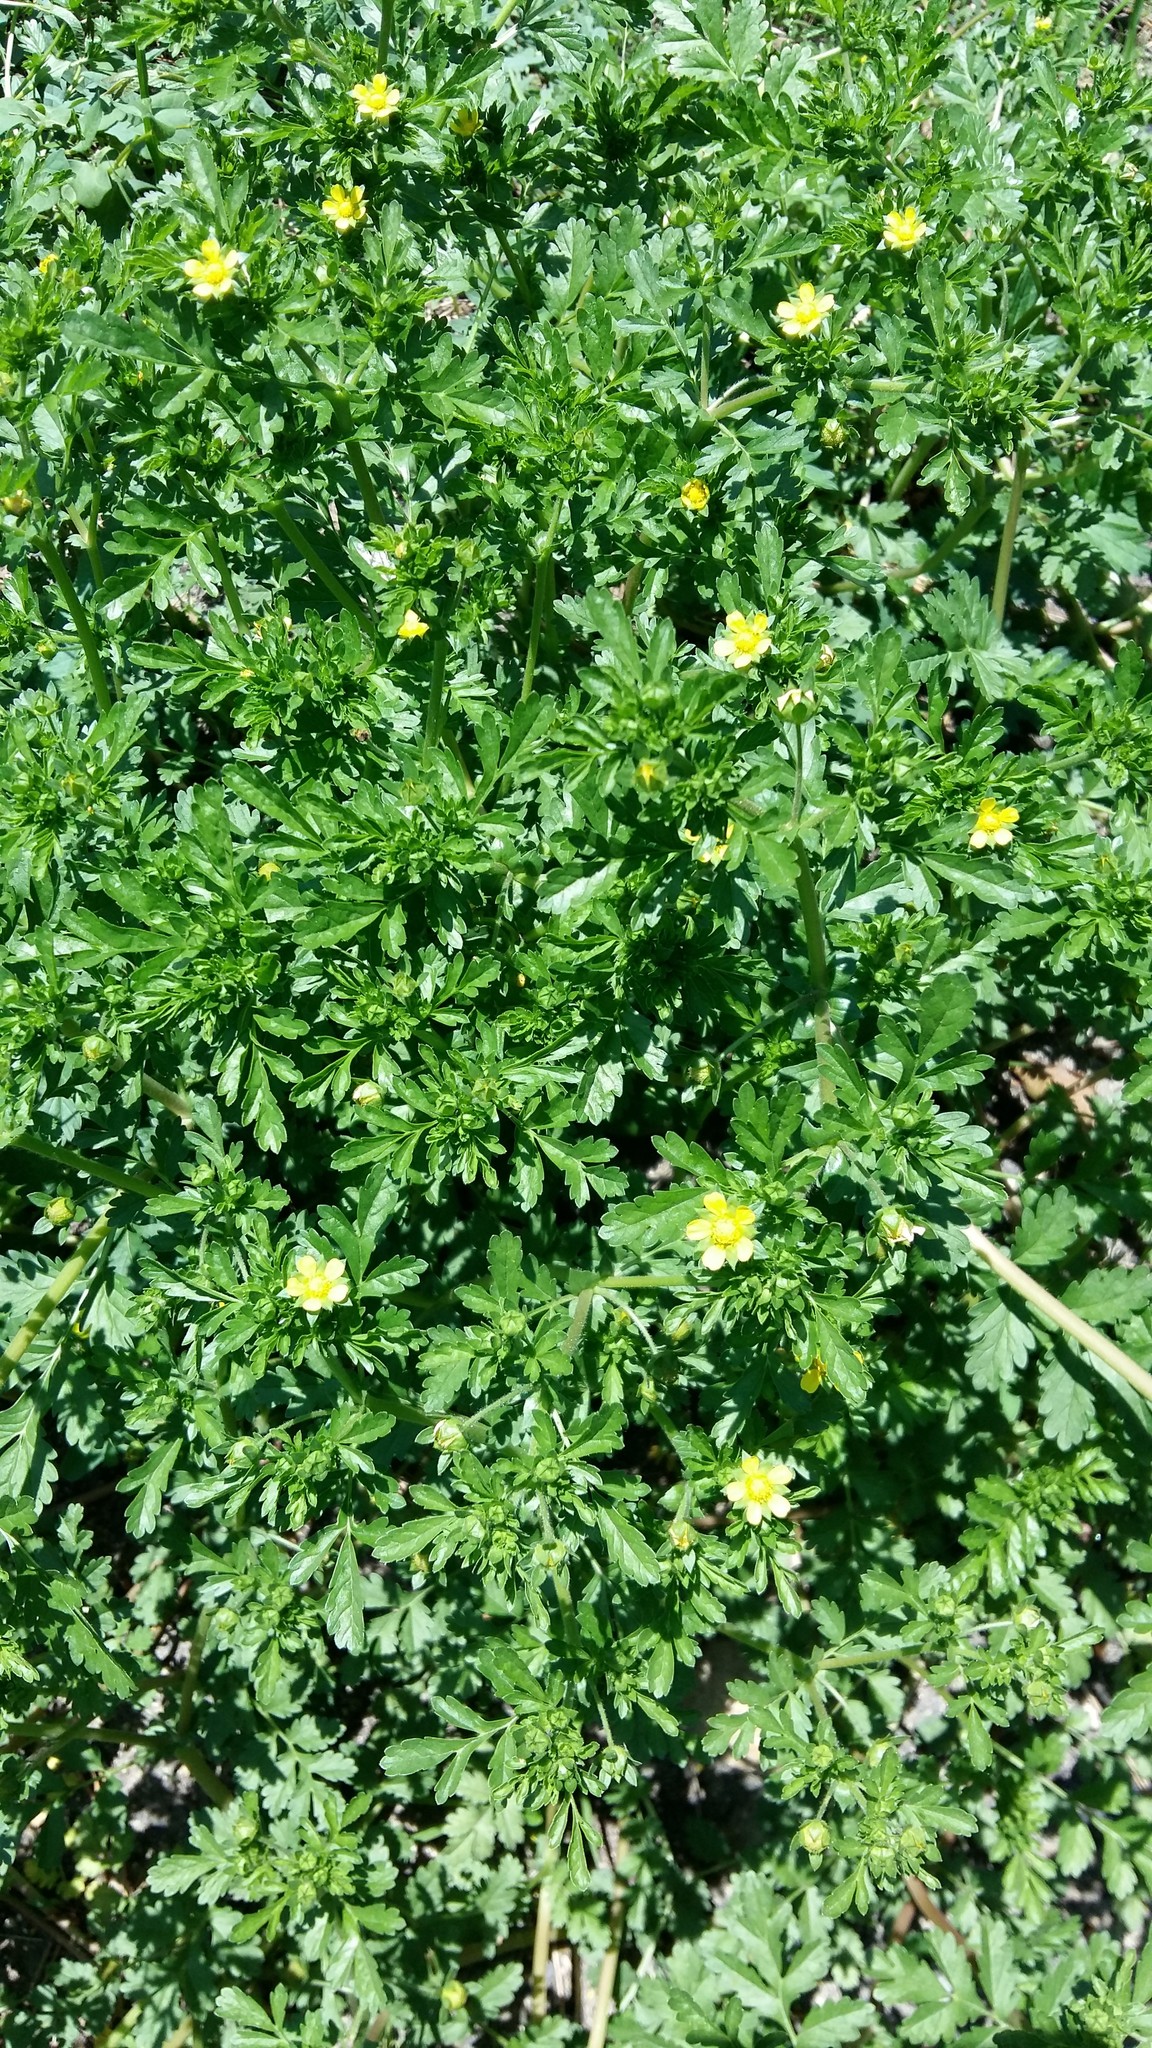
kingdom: Plantae
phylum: Tracheophyta
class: Magnoliopsida
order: Rosales
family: Rosaceae
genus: Potentilla
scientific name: Potentilla supina
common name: Prostrate cinquefoil
